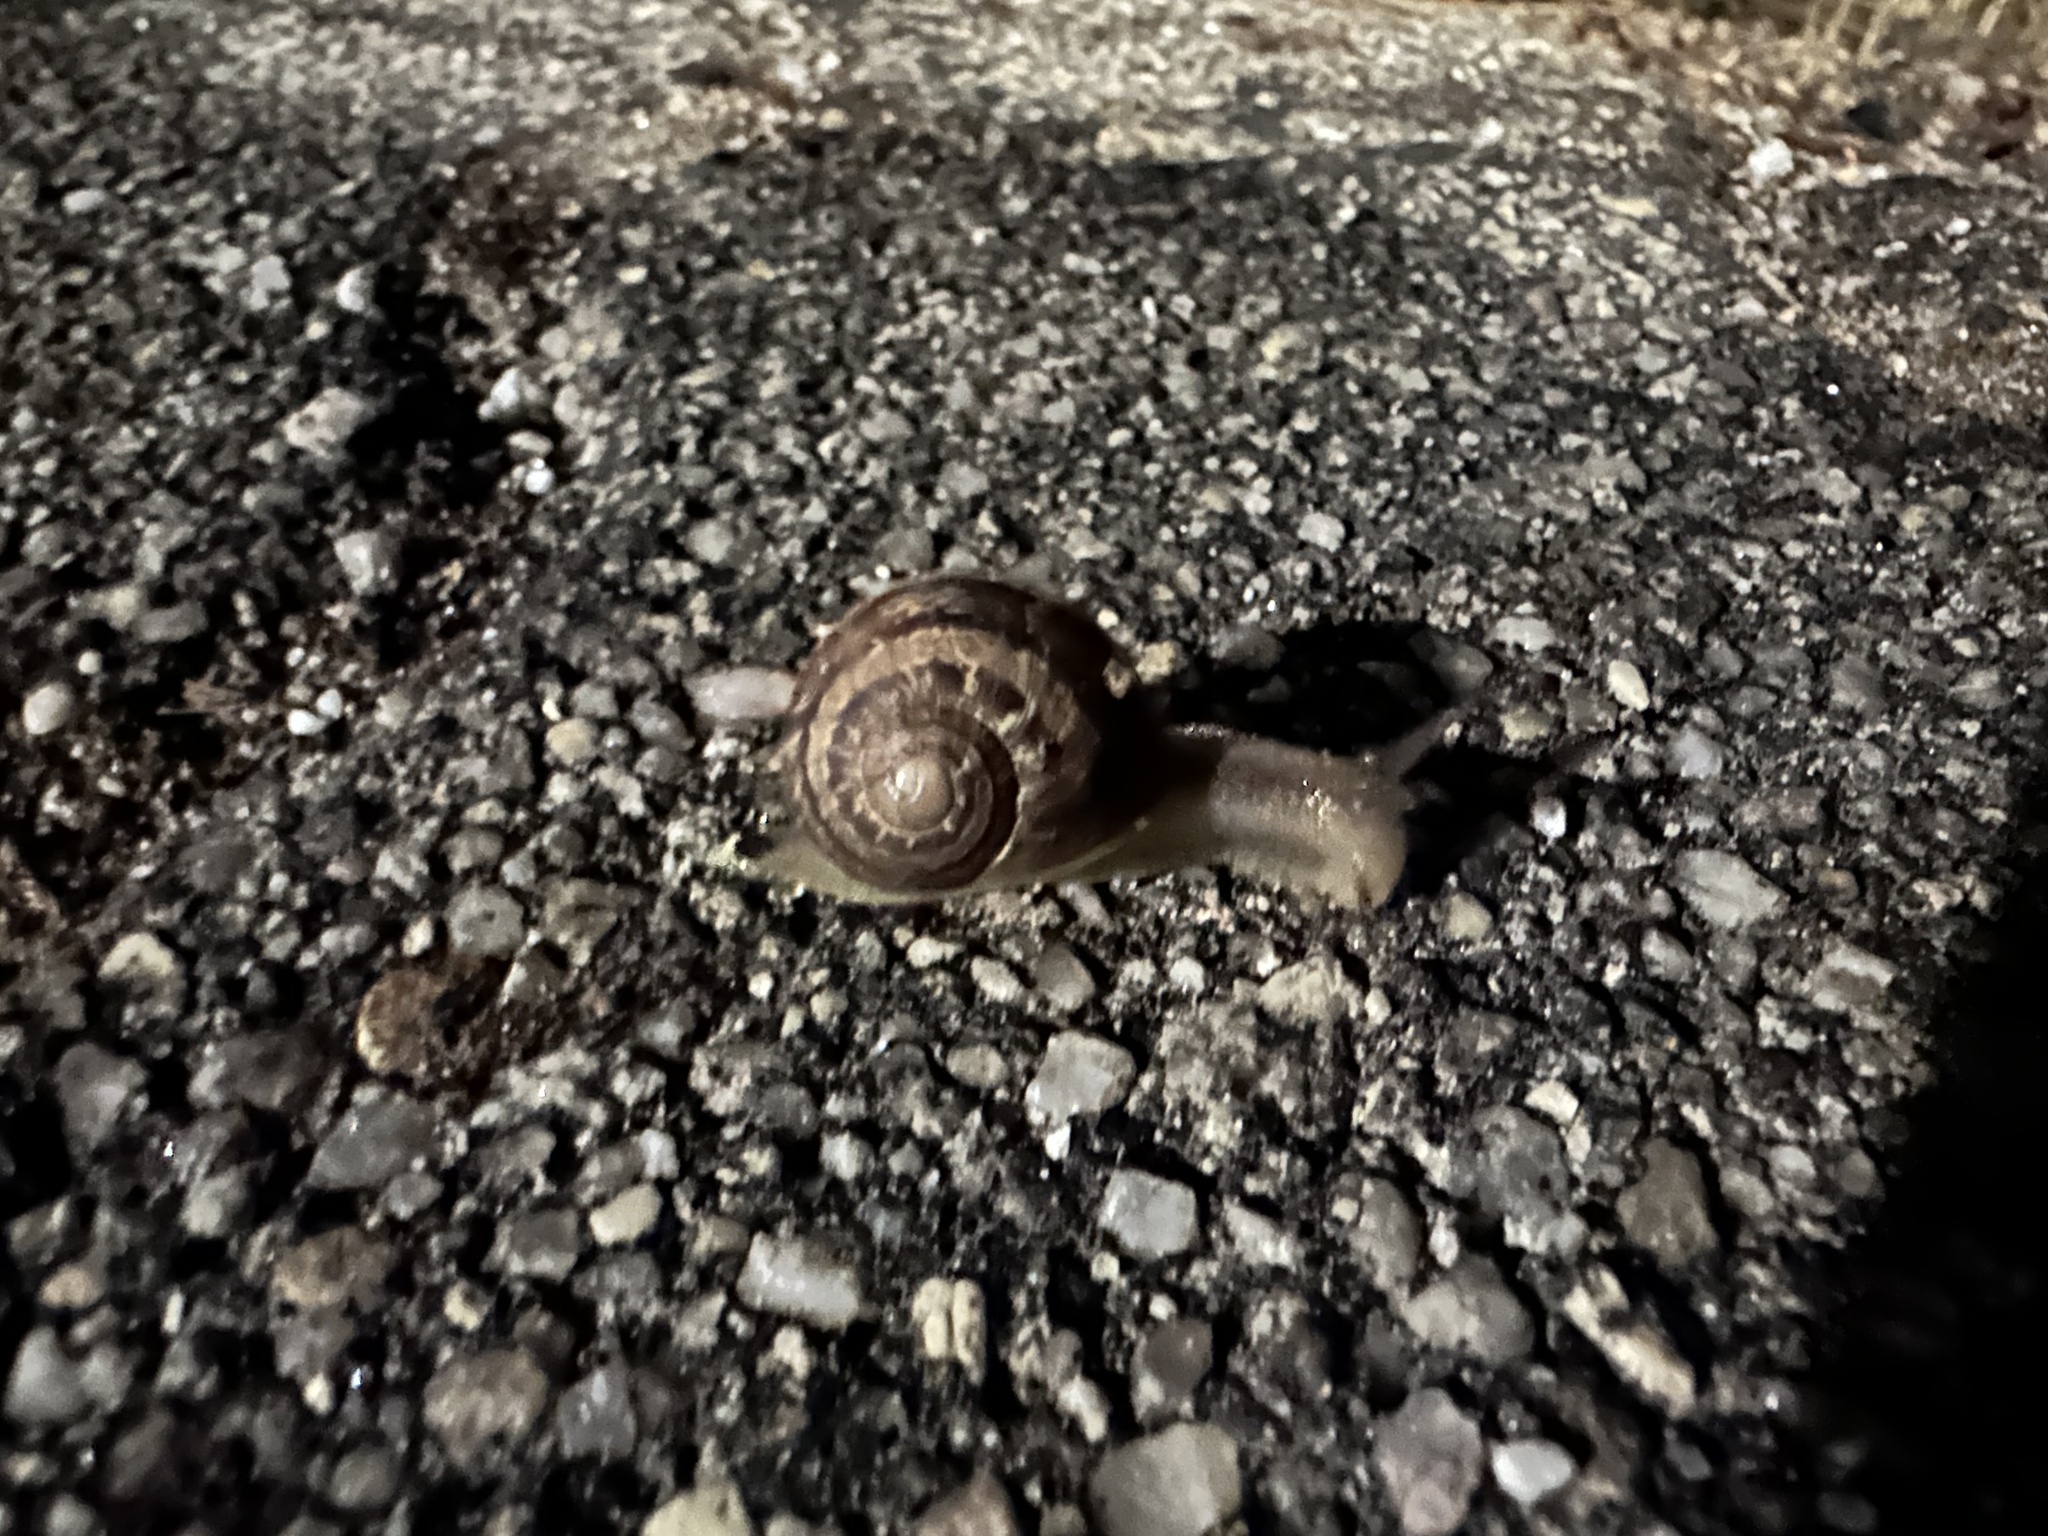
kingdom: Animalia
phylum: Mollusca
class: Gastropoda
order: Stylommatophora
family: Helicidae
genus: Cornu
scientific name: Cornu aspersum
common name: Brown garden snail
